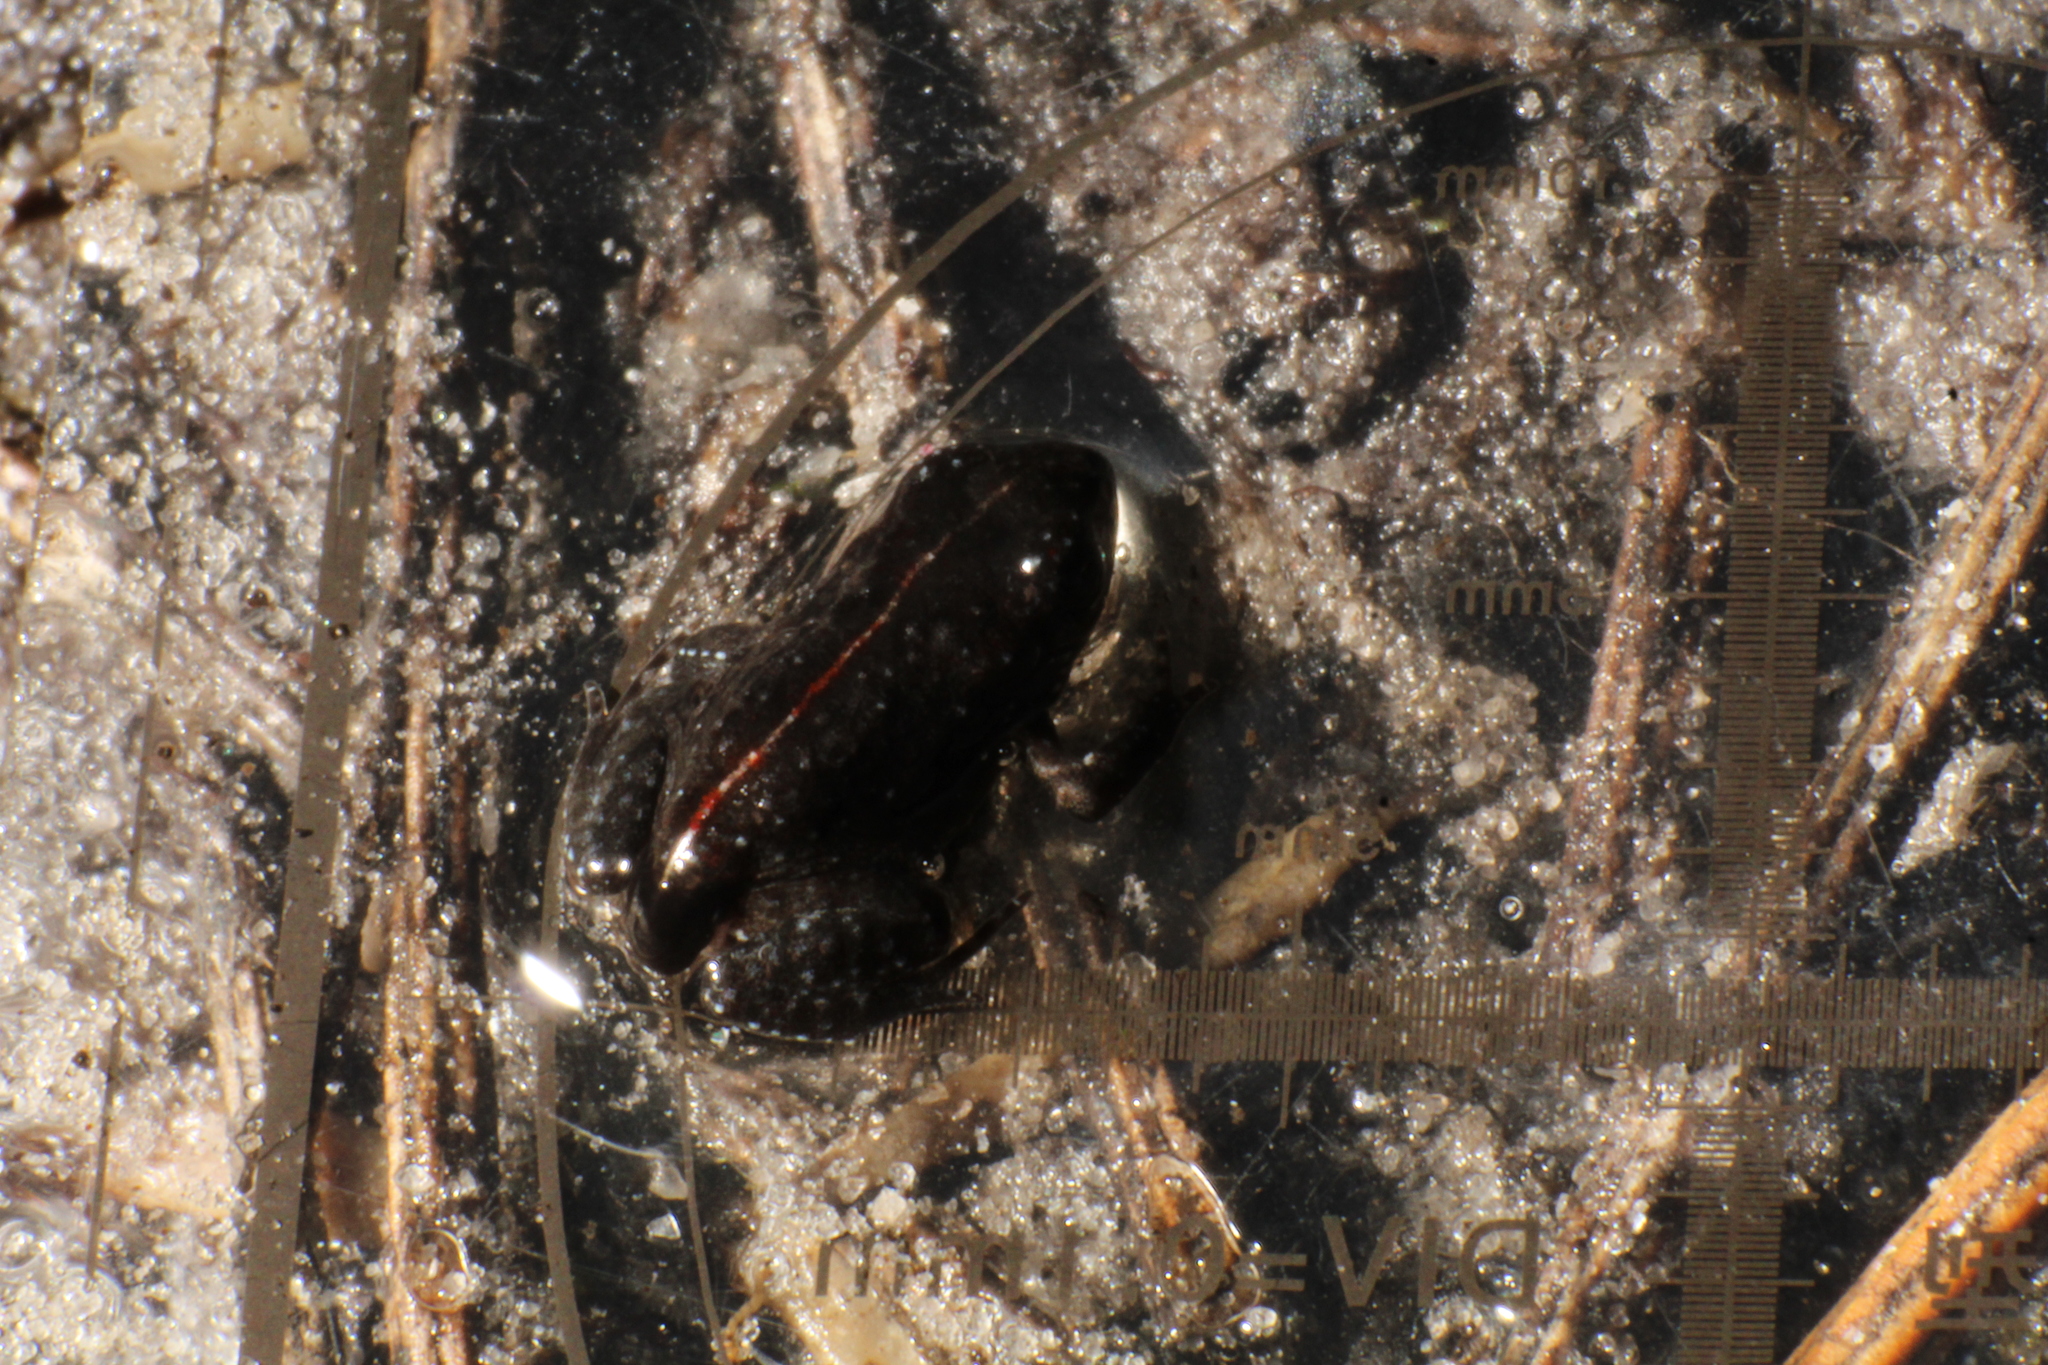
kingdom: Animalia
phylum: Chordata
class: Amphibia
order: Anura
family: Myobatrachidae
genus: Geocrinia
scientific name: Geocrinia leai
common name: Lea’s frog
